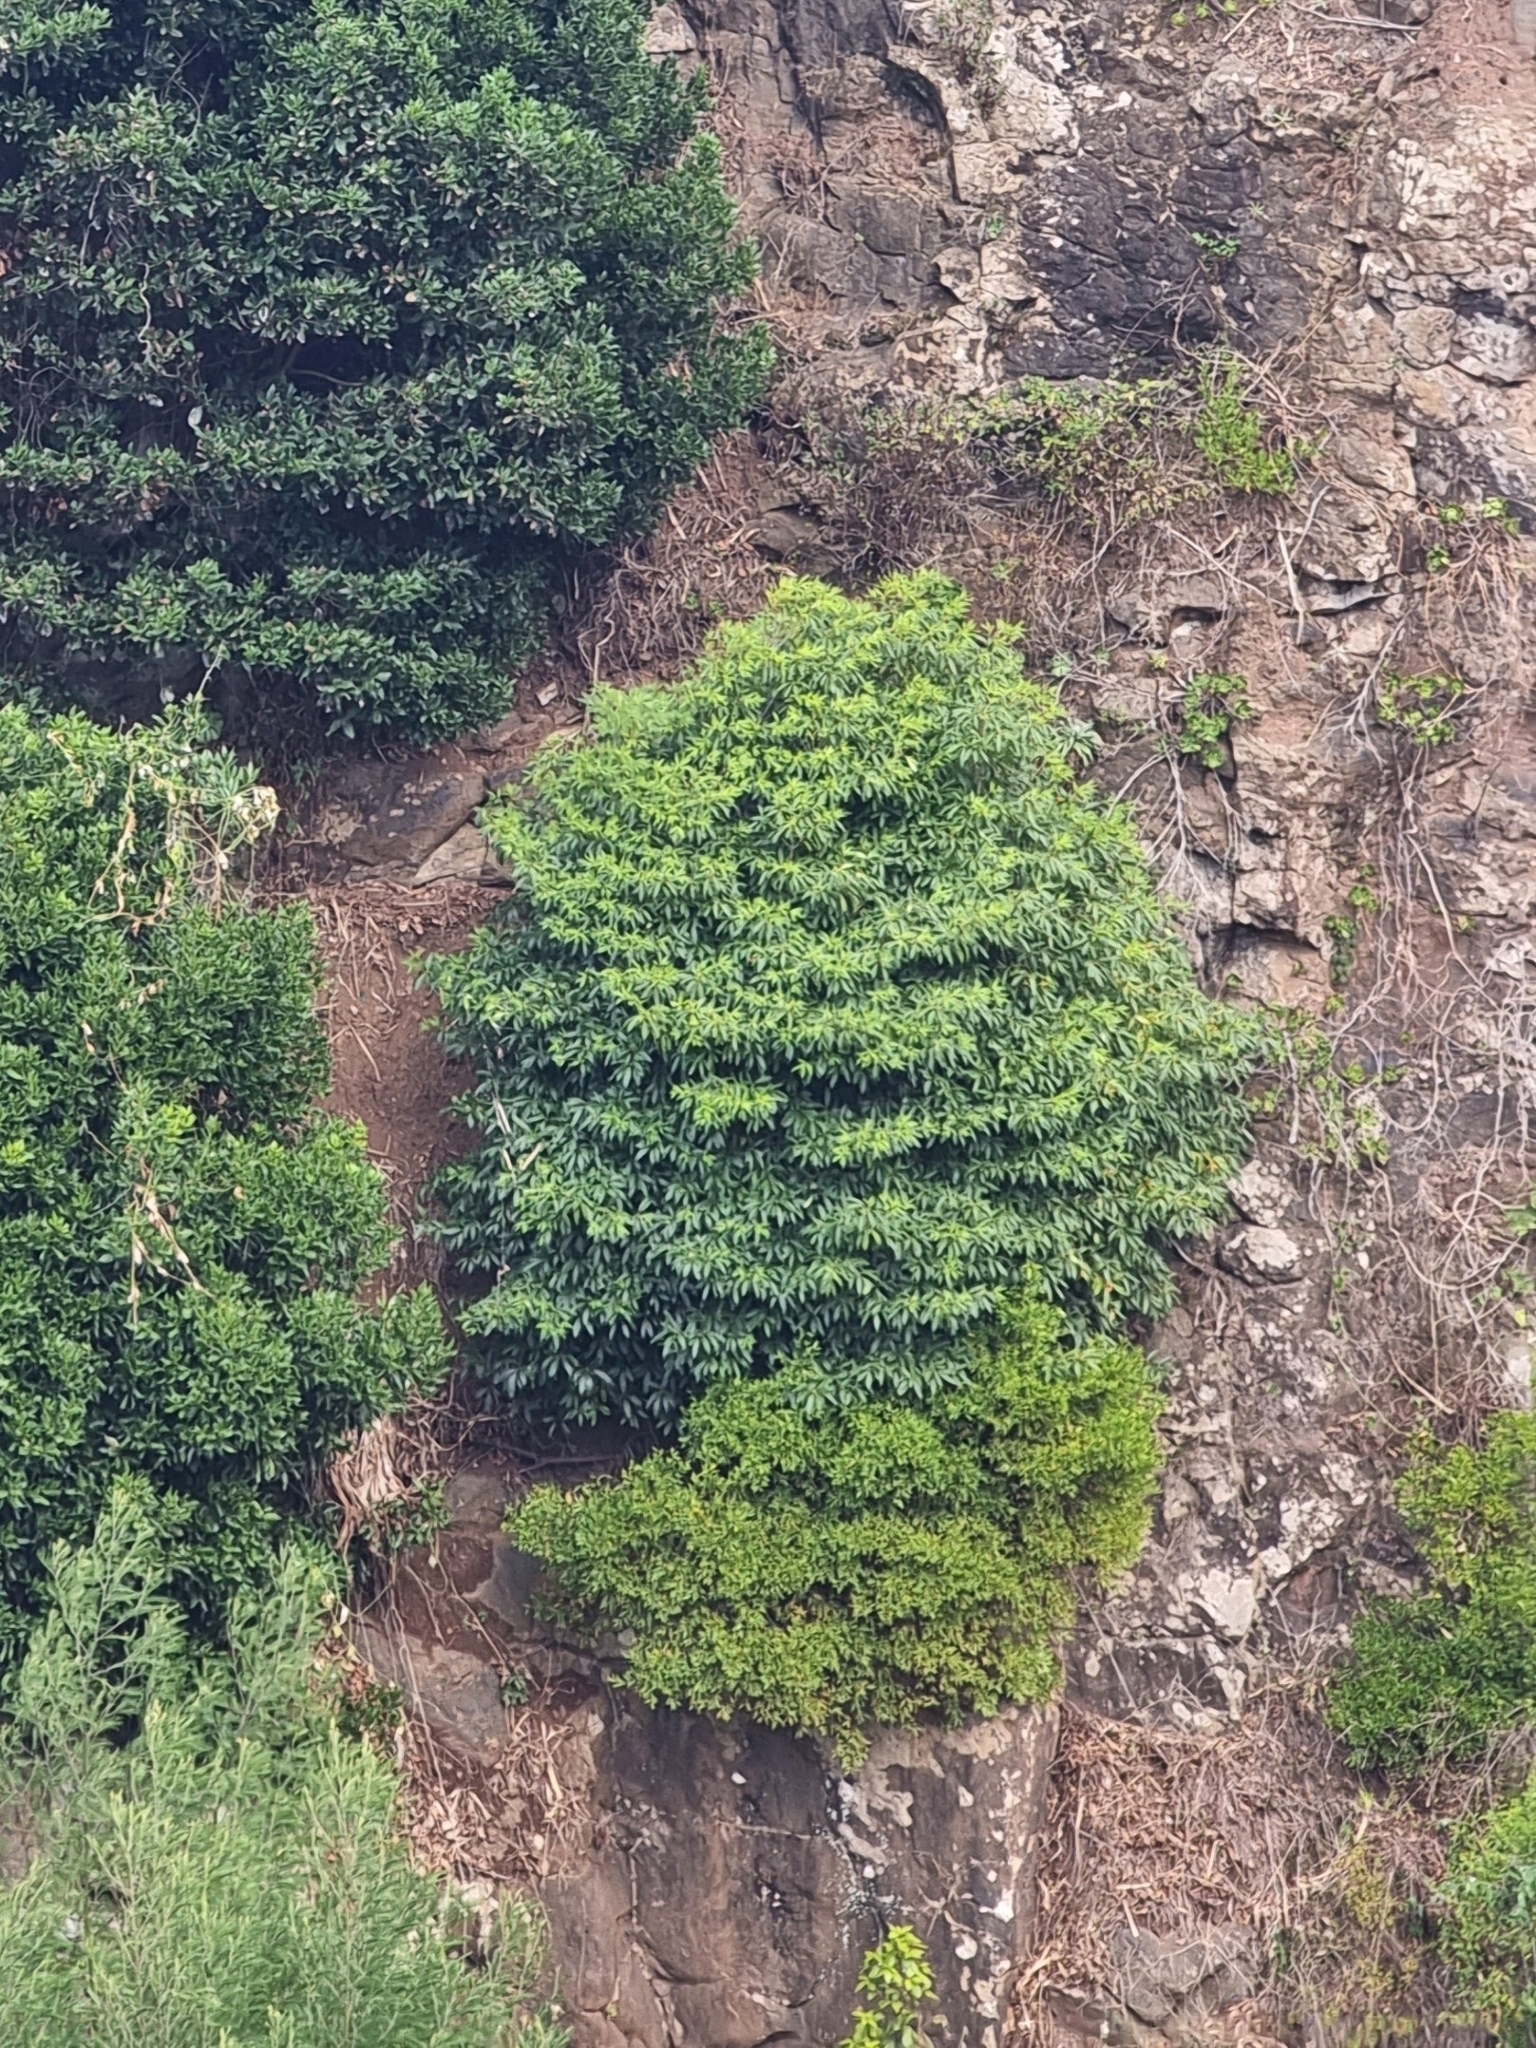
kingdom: Plantae
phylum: Tracheophyta
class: Magnoliopsida
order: Apiales
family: Pittosporaceae
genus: Pittosporum
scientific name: Pittosporum undulatum
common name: Australian cheesewood
